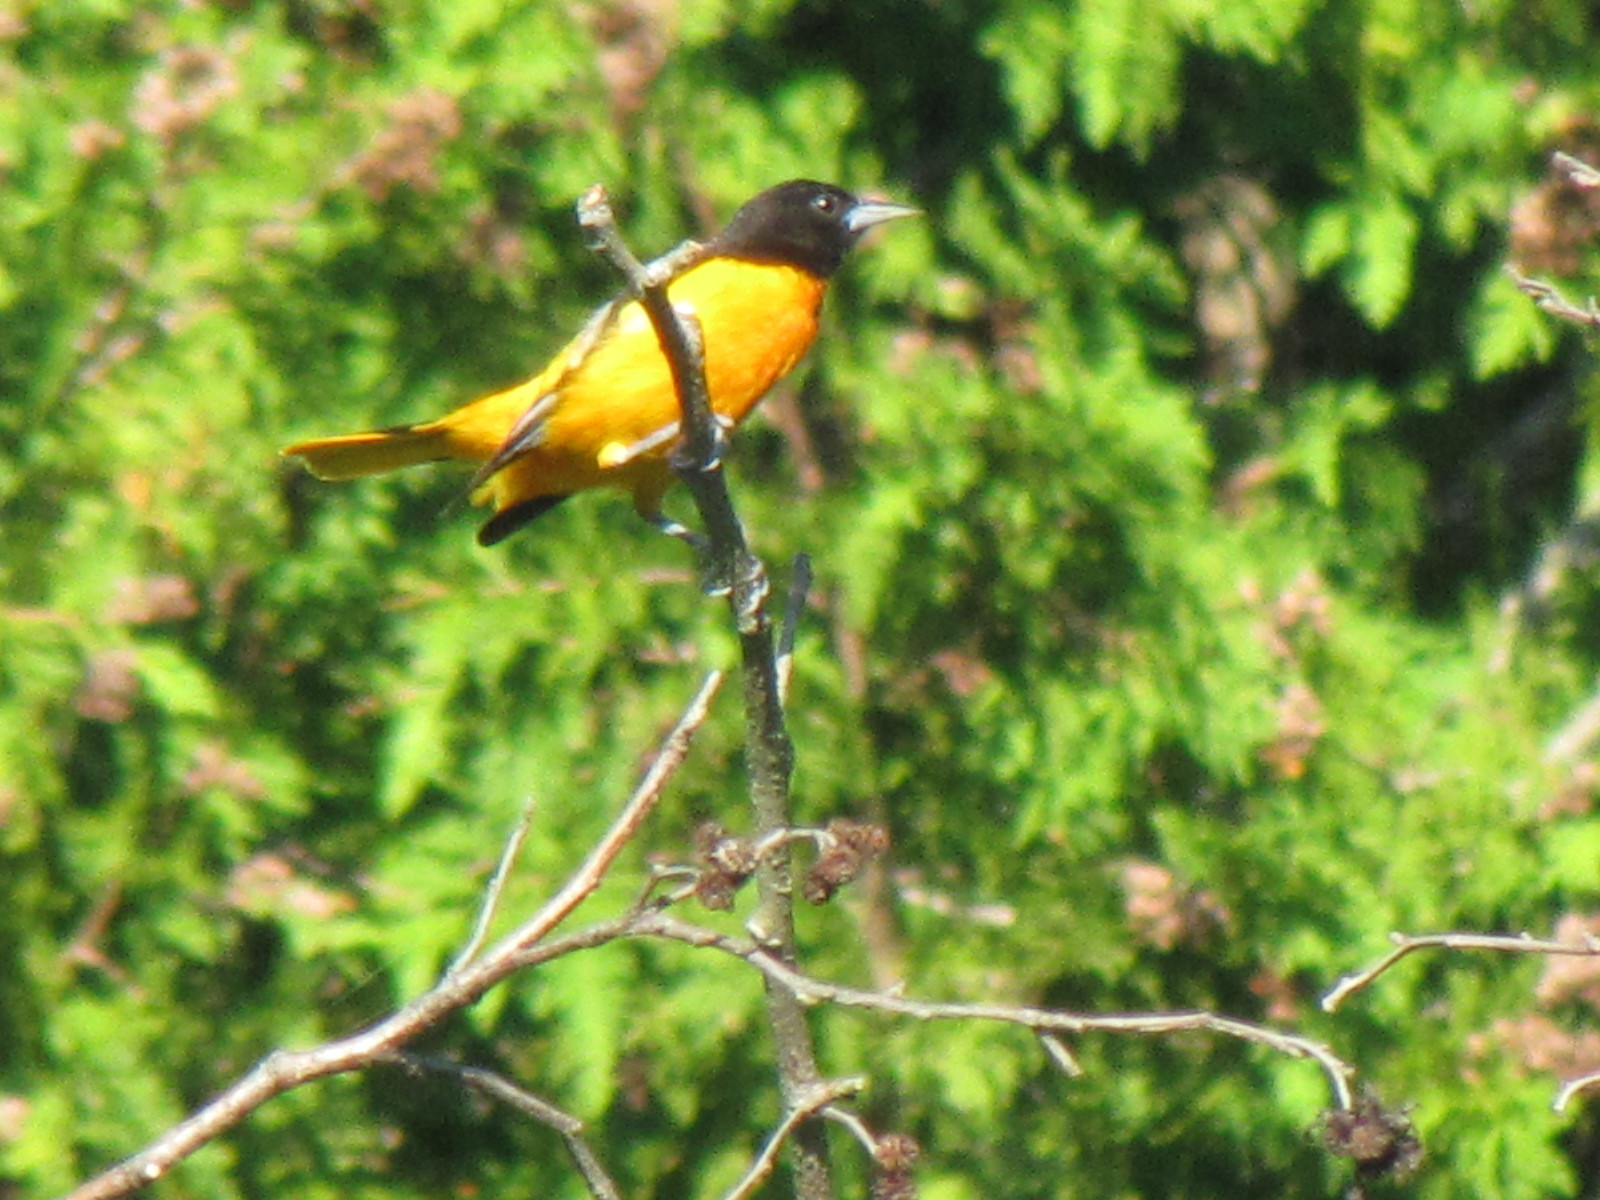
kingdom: Animalia
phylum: Chordata
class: Aves
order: Passeriformes
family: Icteridae
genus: Icterus
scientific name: Icterus galbula
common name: Baltimore oriole
